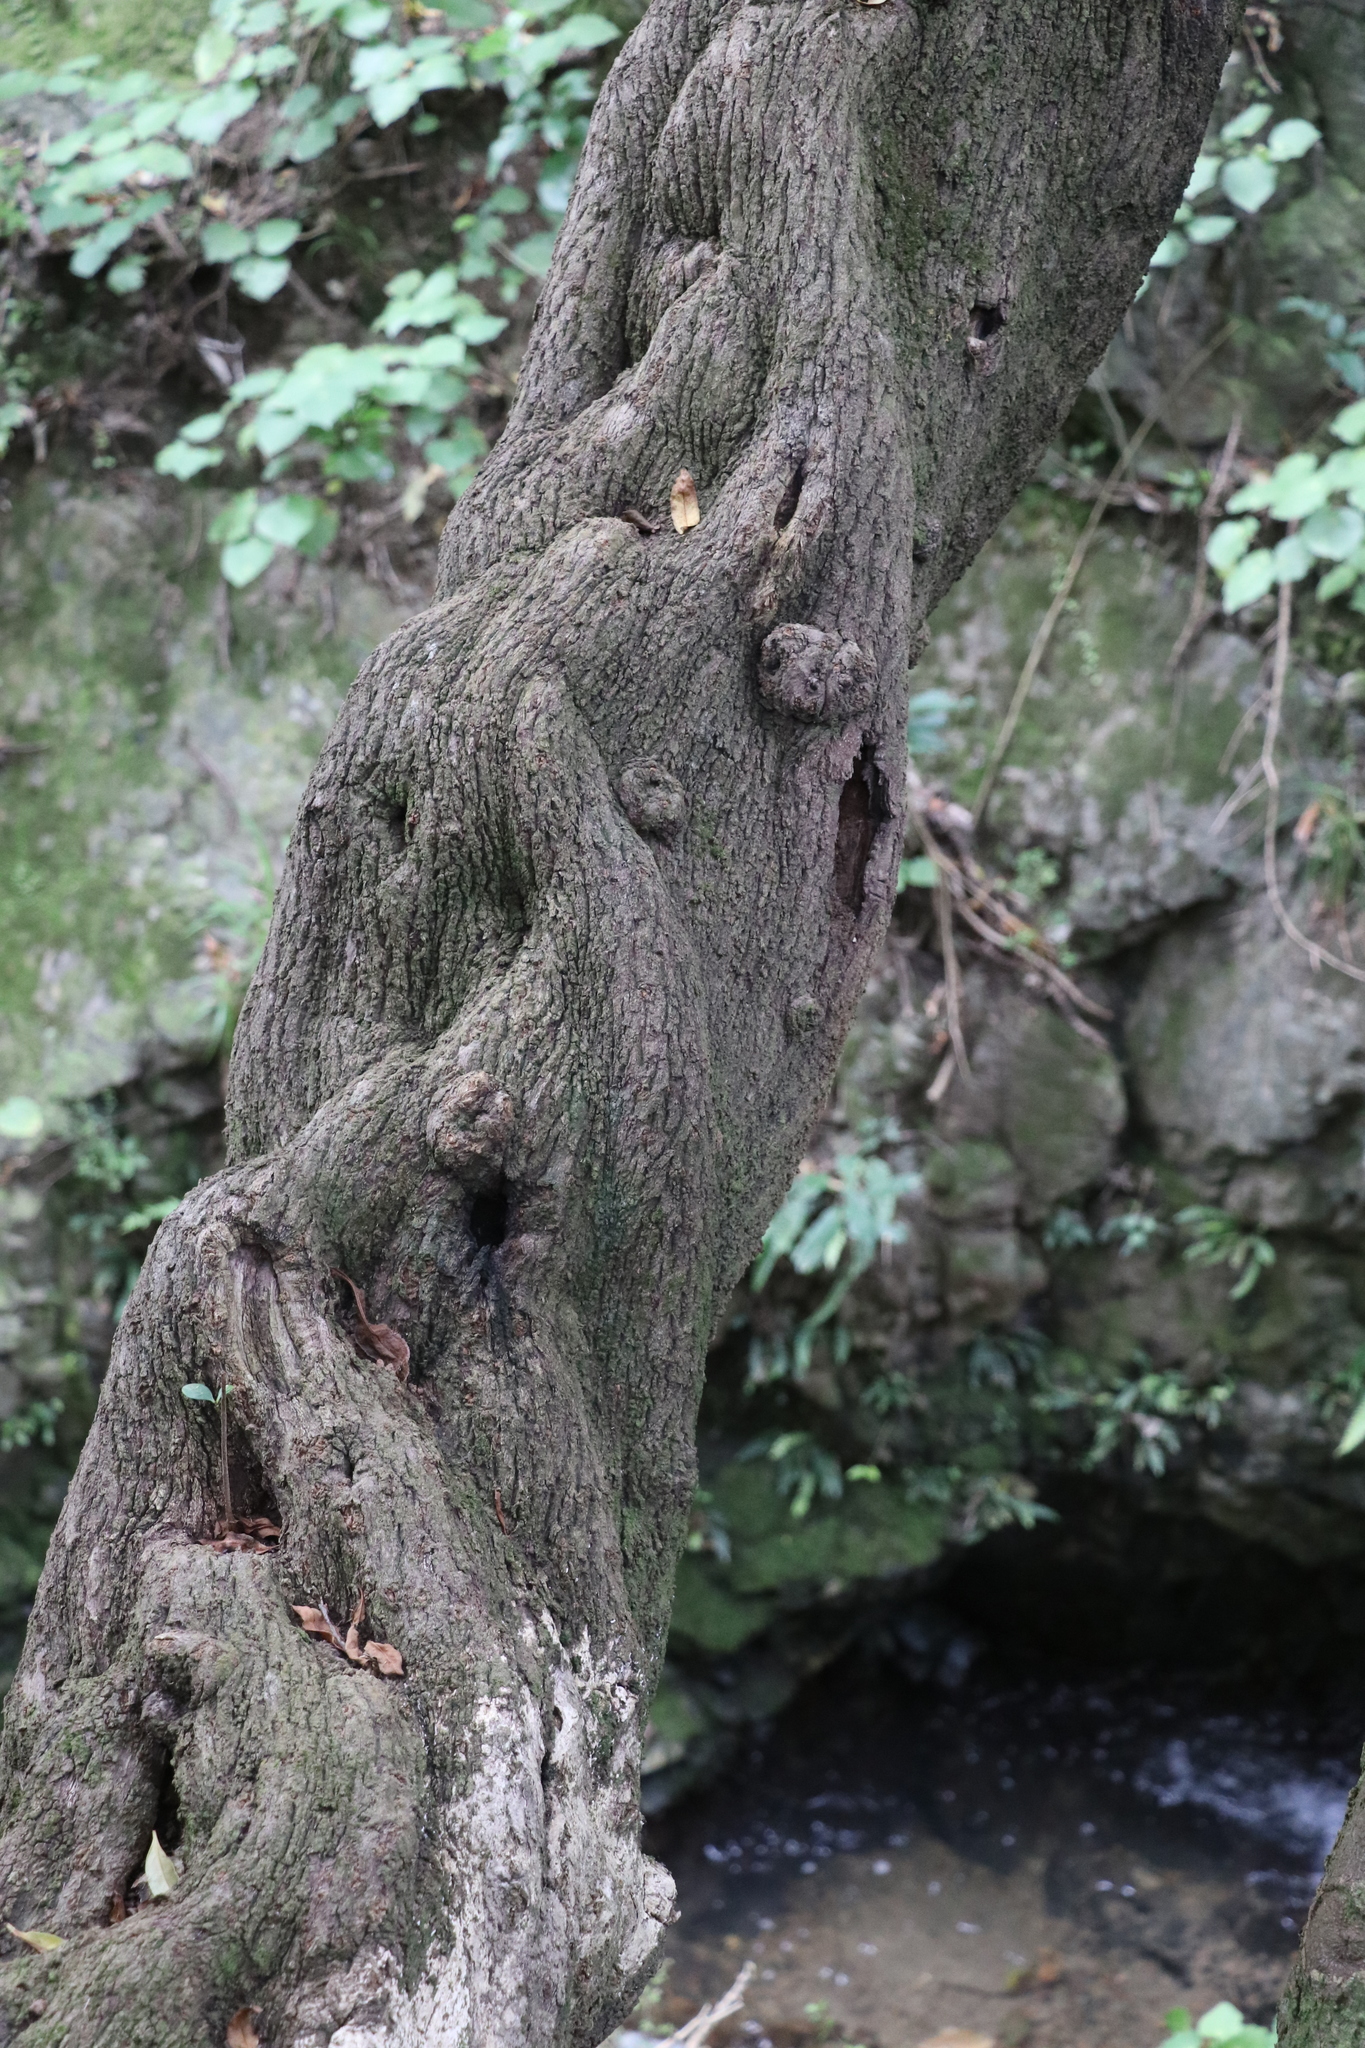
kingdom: Plantae
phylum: Tracheophyta
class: Magnoliopsida
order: Apiales
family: Griseliniaceae
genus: Griselinia
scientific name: Griselinia littoralis
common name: New zealand broadleaf
